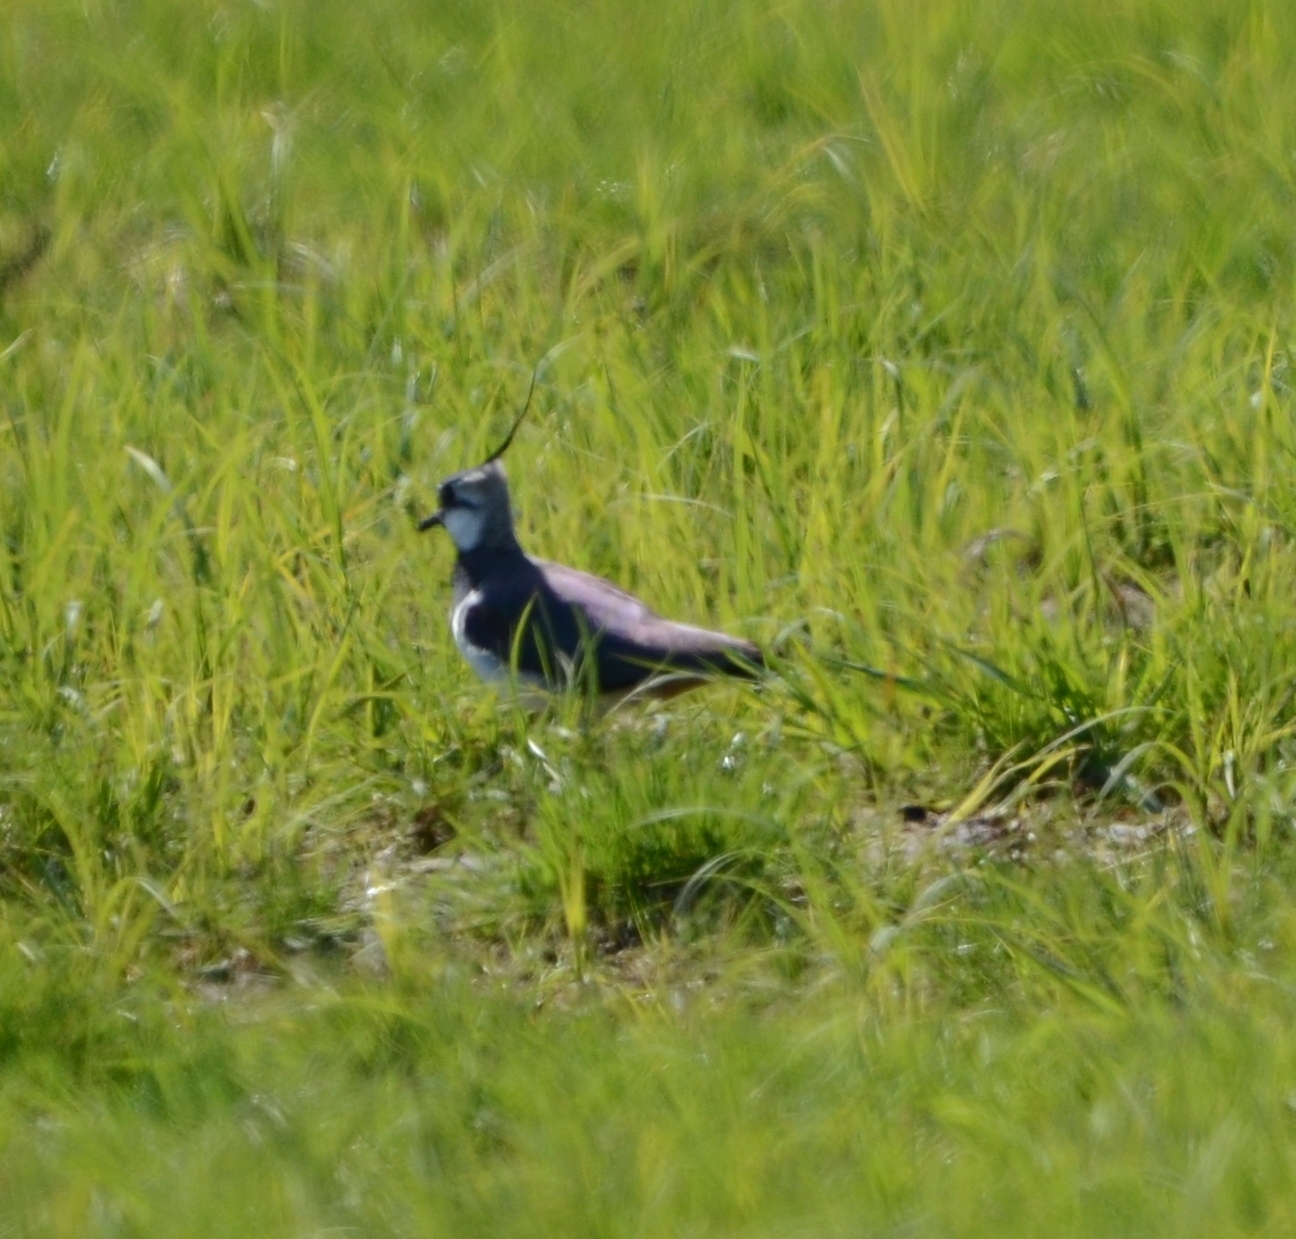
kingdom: Animalia
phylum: Chordata
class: Aves
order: Charadriiformes
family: Charadriidae
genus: Vanellus
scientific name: Vanellus vanellus
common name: Northern lapwing
